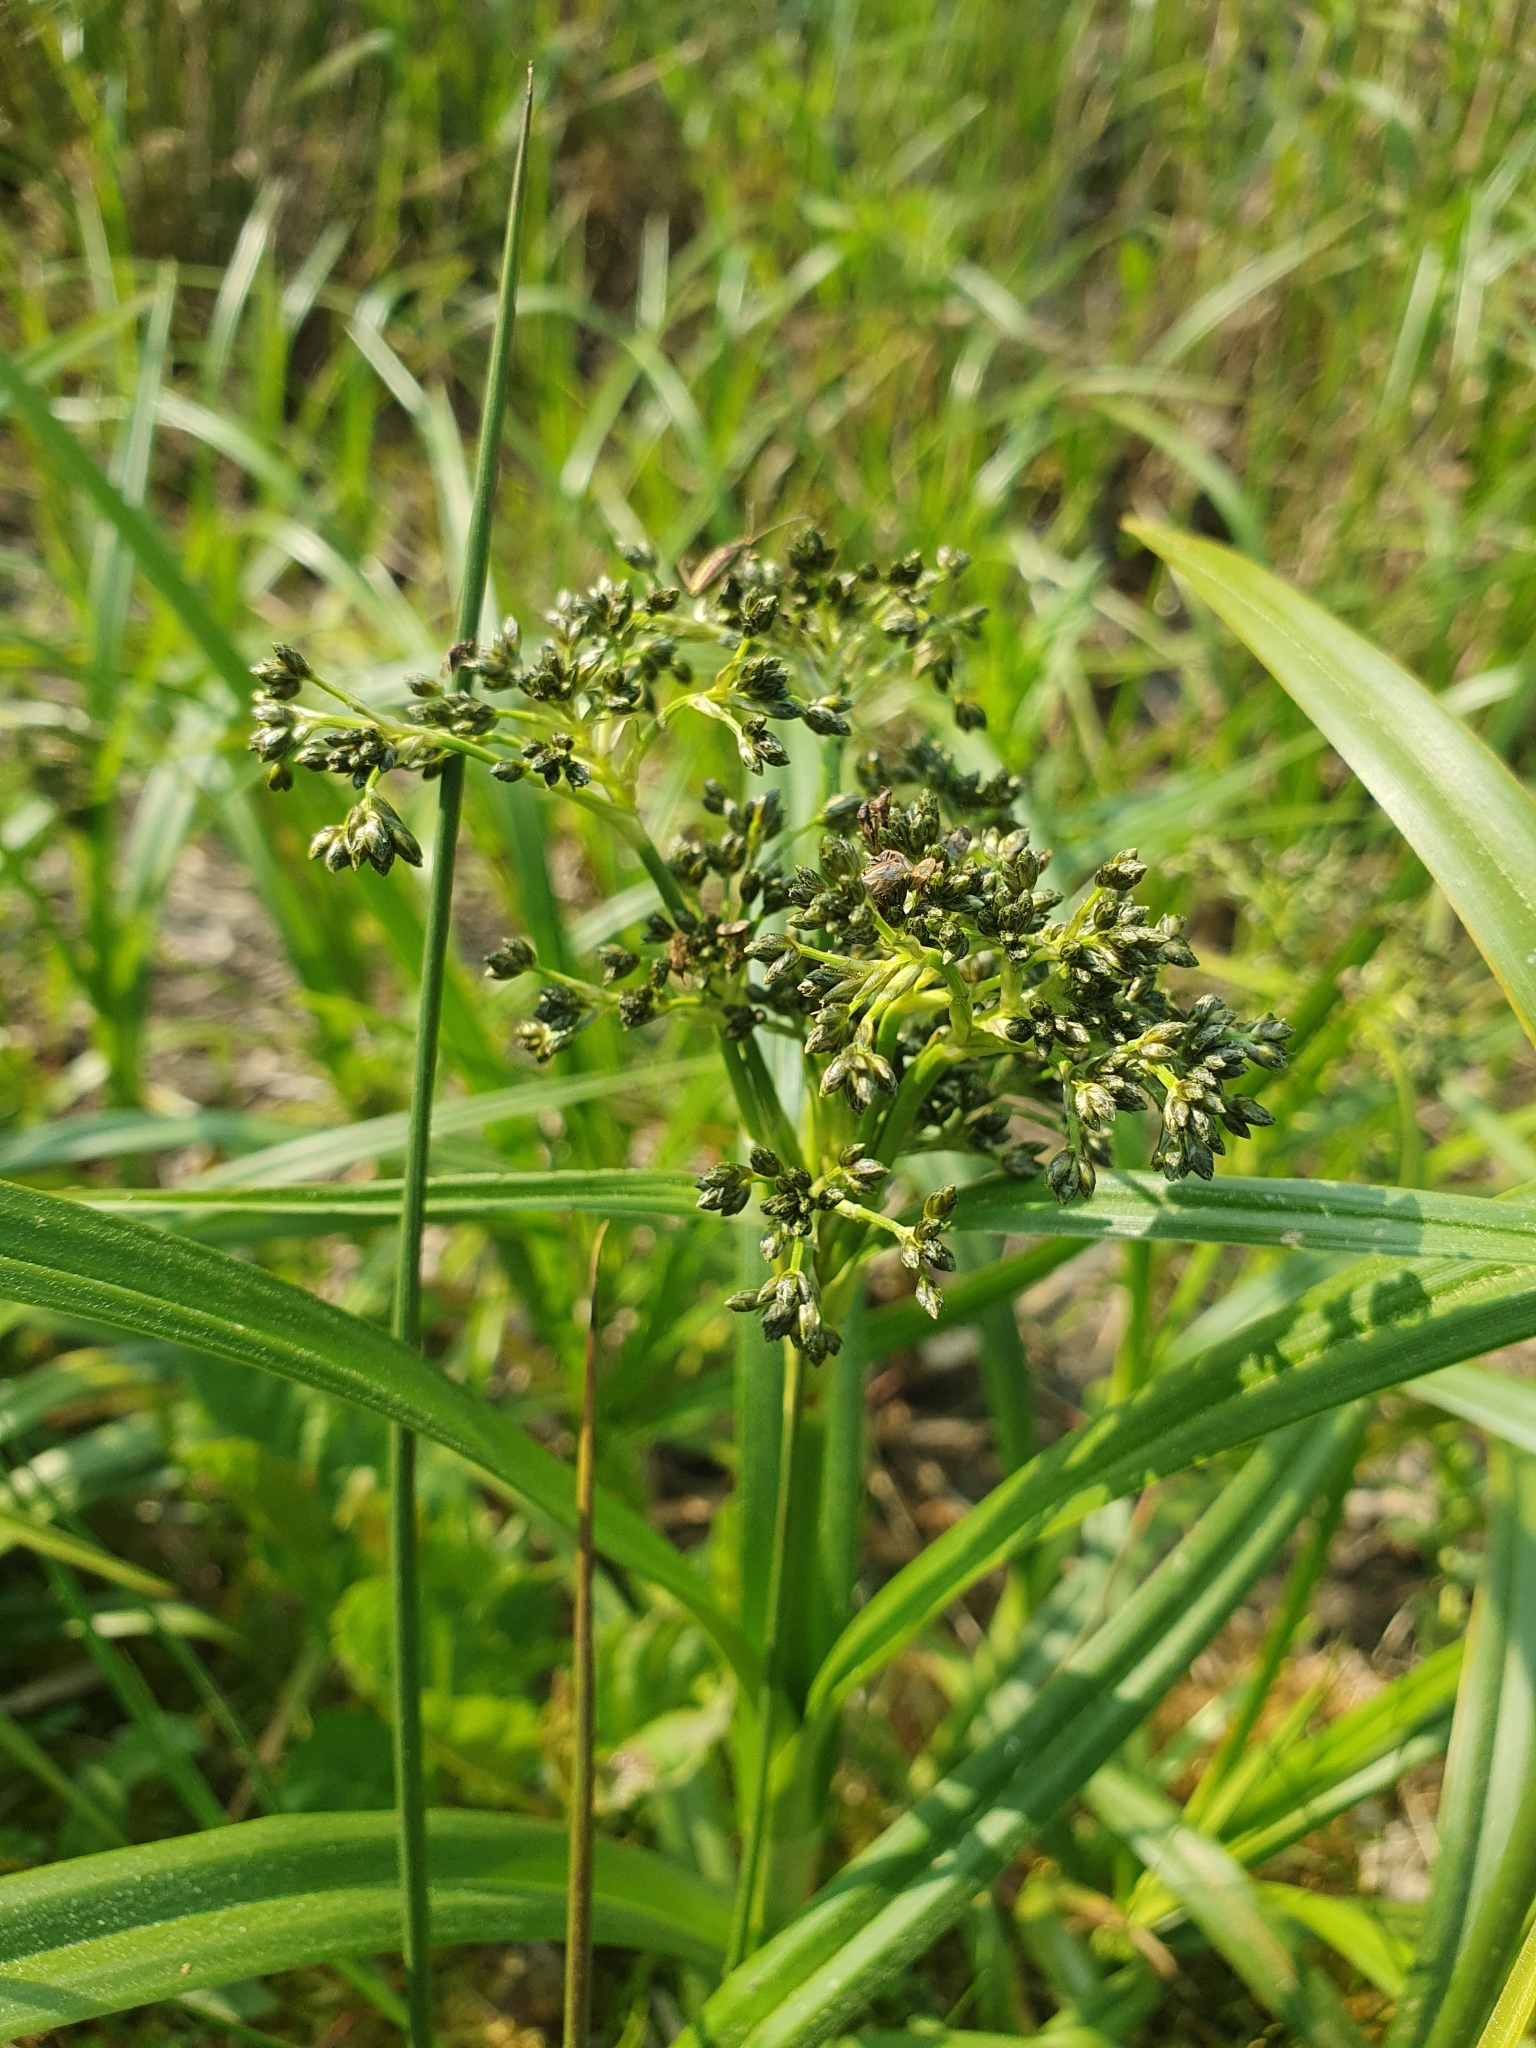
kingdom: Plantae
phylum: Tracheophyta
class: Liliopsida
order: Poales
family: Cyperaceae
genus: Scirpus
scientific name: Scirpus sylvaticus
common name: Wood club-rush
